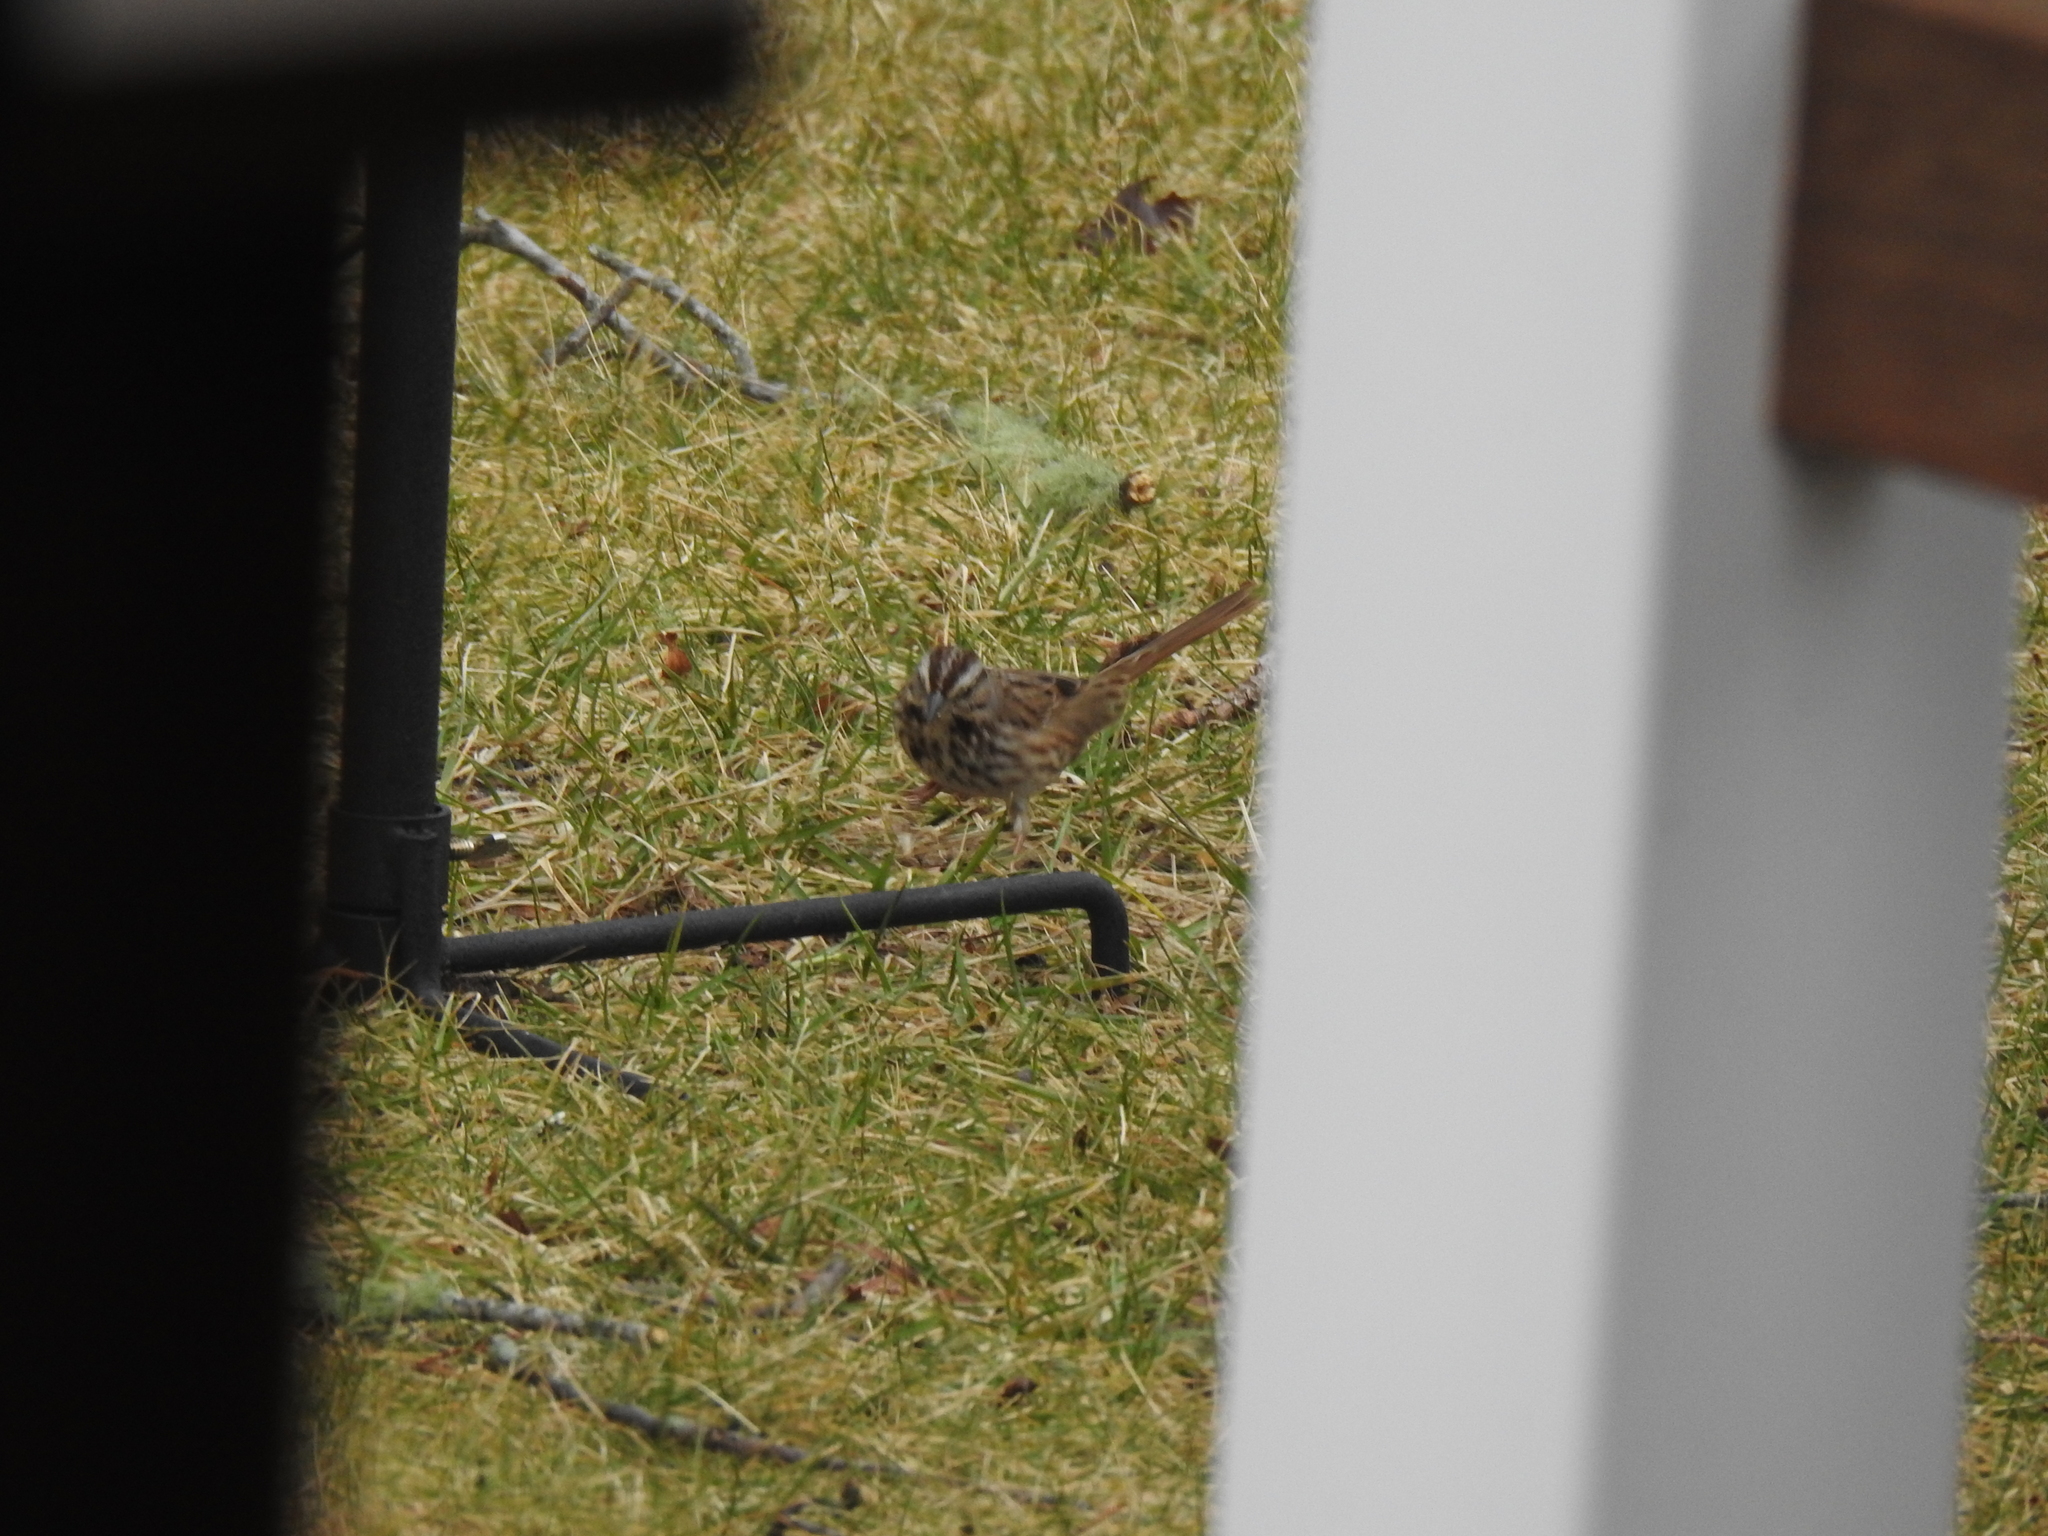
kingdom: Animalia
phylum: Chordata
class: Aves
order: Passeriformes
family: Passerellidae
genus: Melospiza
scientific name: Melospiza melodia
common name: Song sparrow
